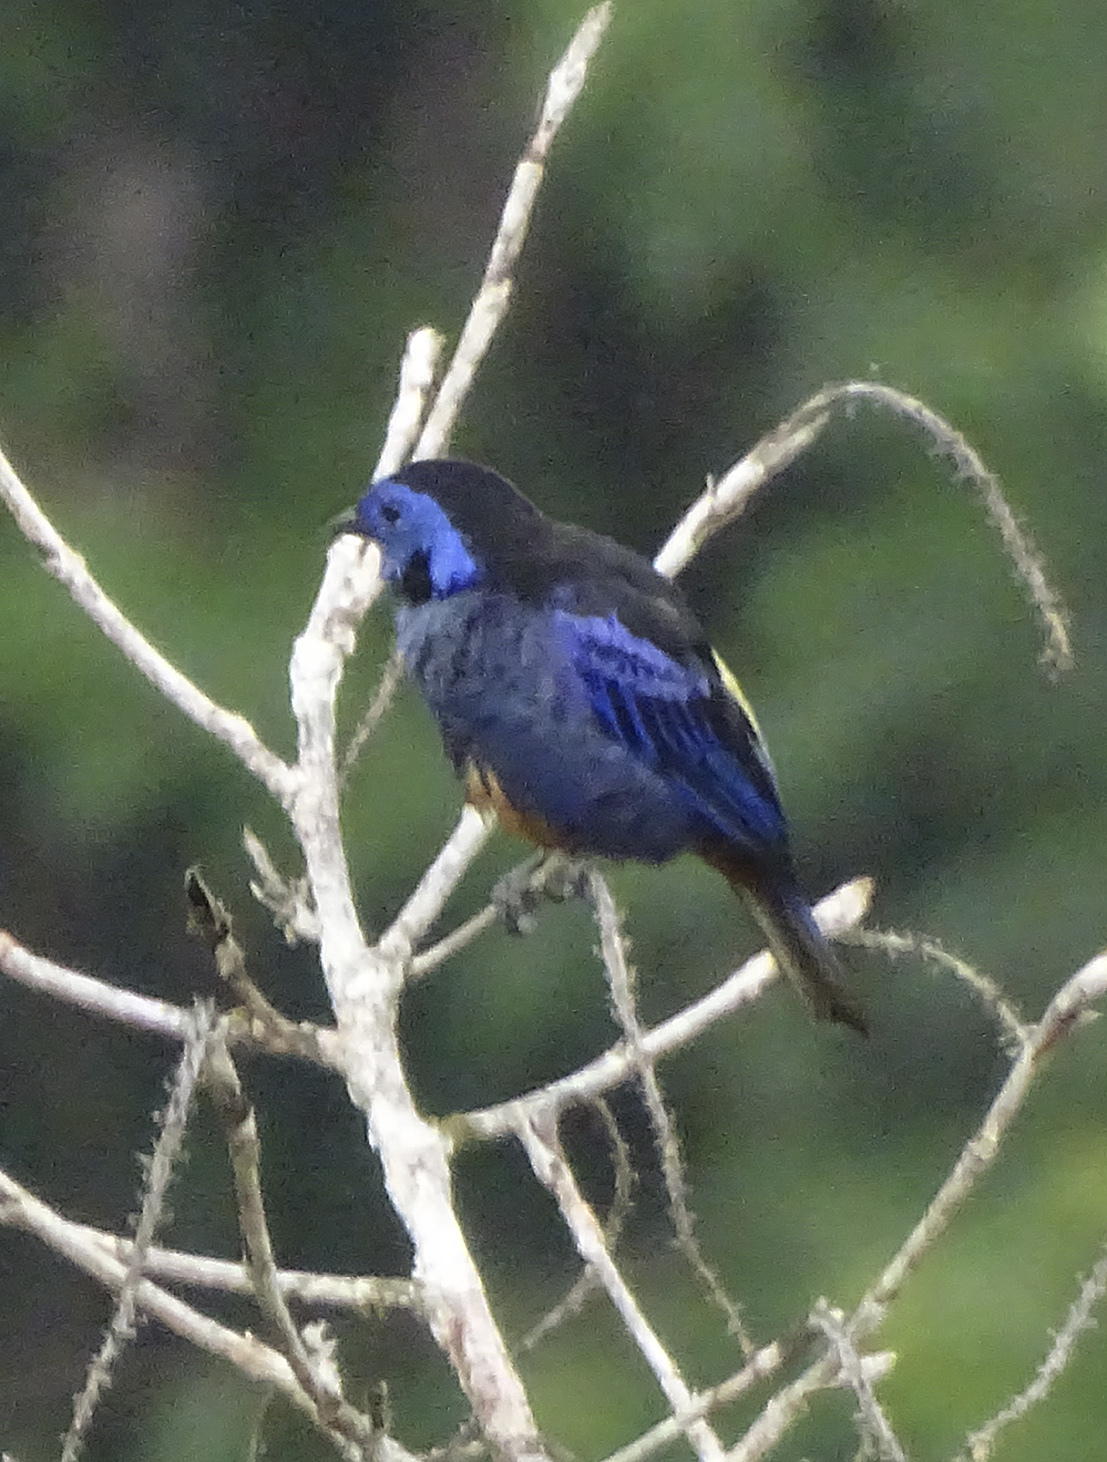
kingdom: Animalia
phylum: Chordata
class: Aves
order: Passeriformes
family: Thraupidae
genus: Tangara
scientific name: Tangara velia
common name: Opal-rumped tanager
